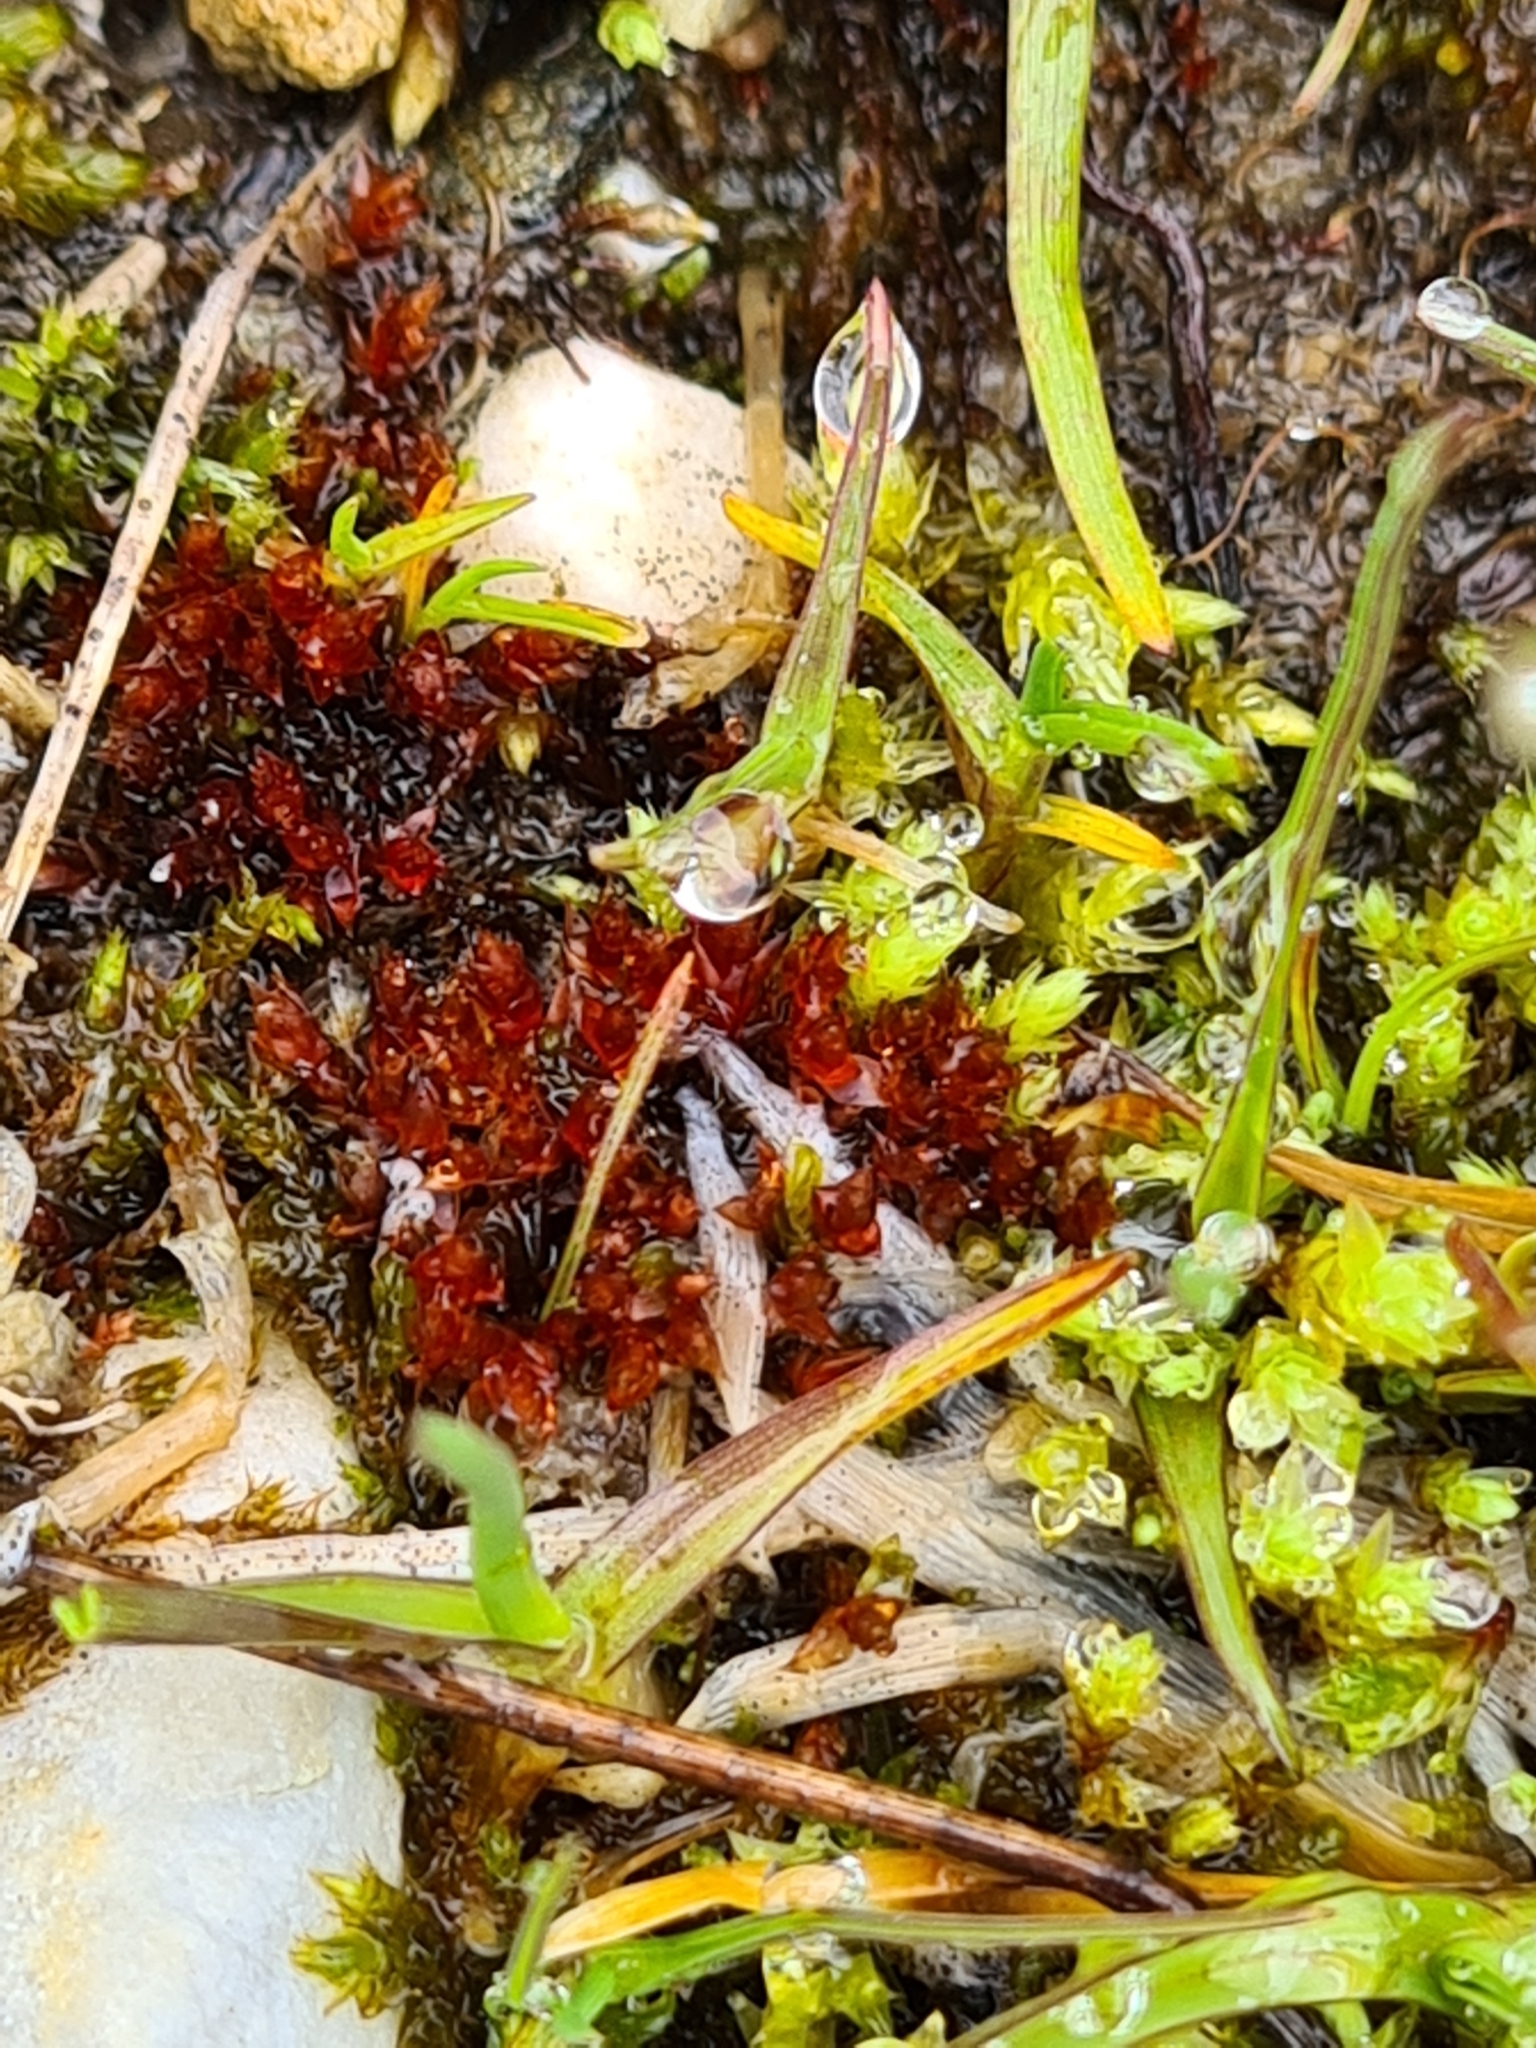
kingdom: Plantae
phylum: Bryophyta
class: Bryopsida
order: Bryales
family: Bryaceae
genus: Ptychostomum
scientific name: Ptychostomum pallens
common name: Pale thread-moss
